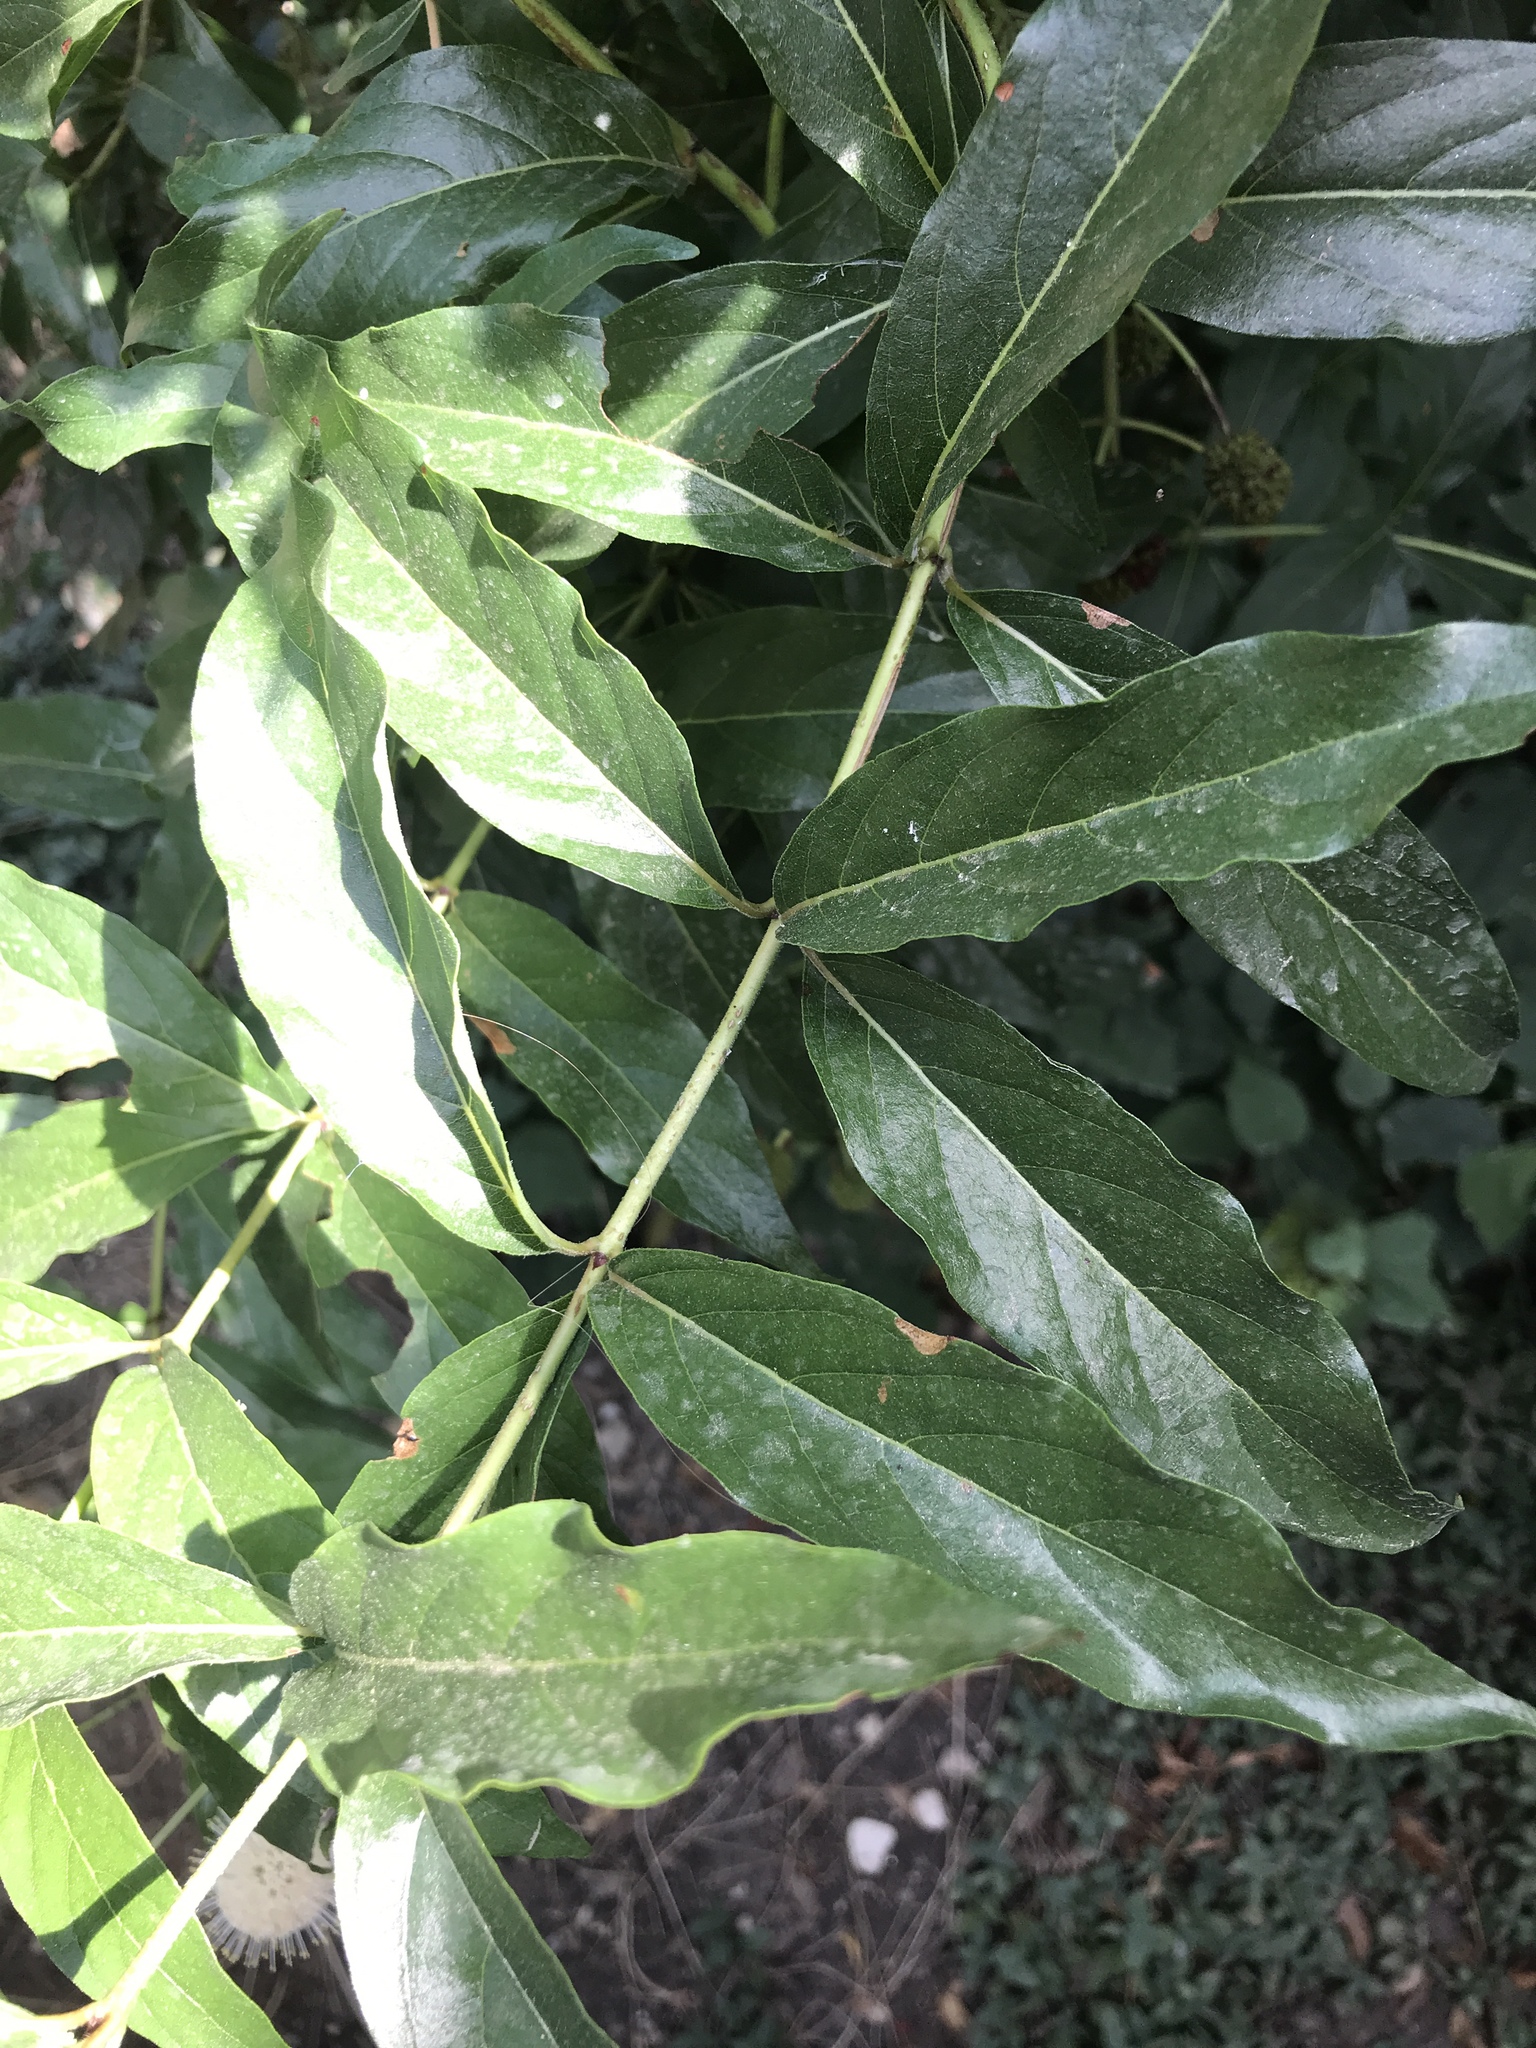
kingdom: Plantae
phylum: Tracheophyta
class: Magnoliopsida
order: Gentianales
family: Rubiaceae
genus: Cephalanthus
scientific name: Cephalanthus occidentalis
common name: Button-willow
